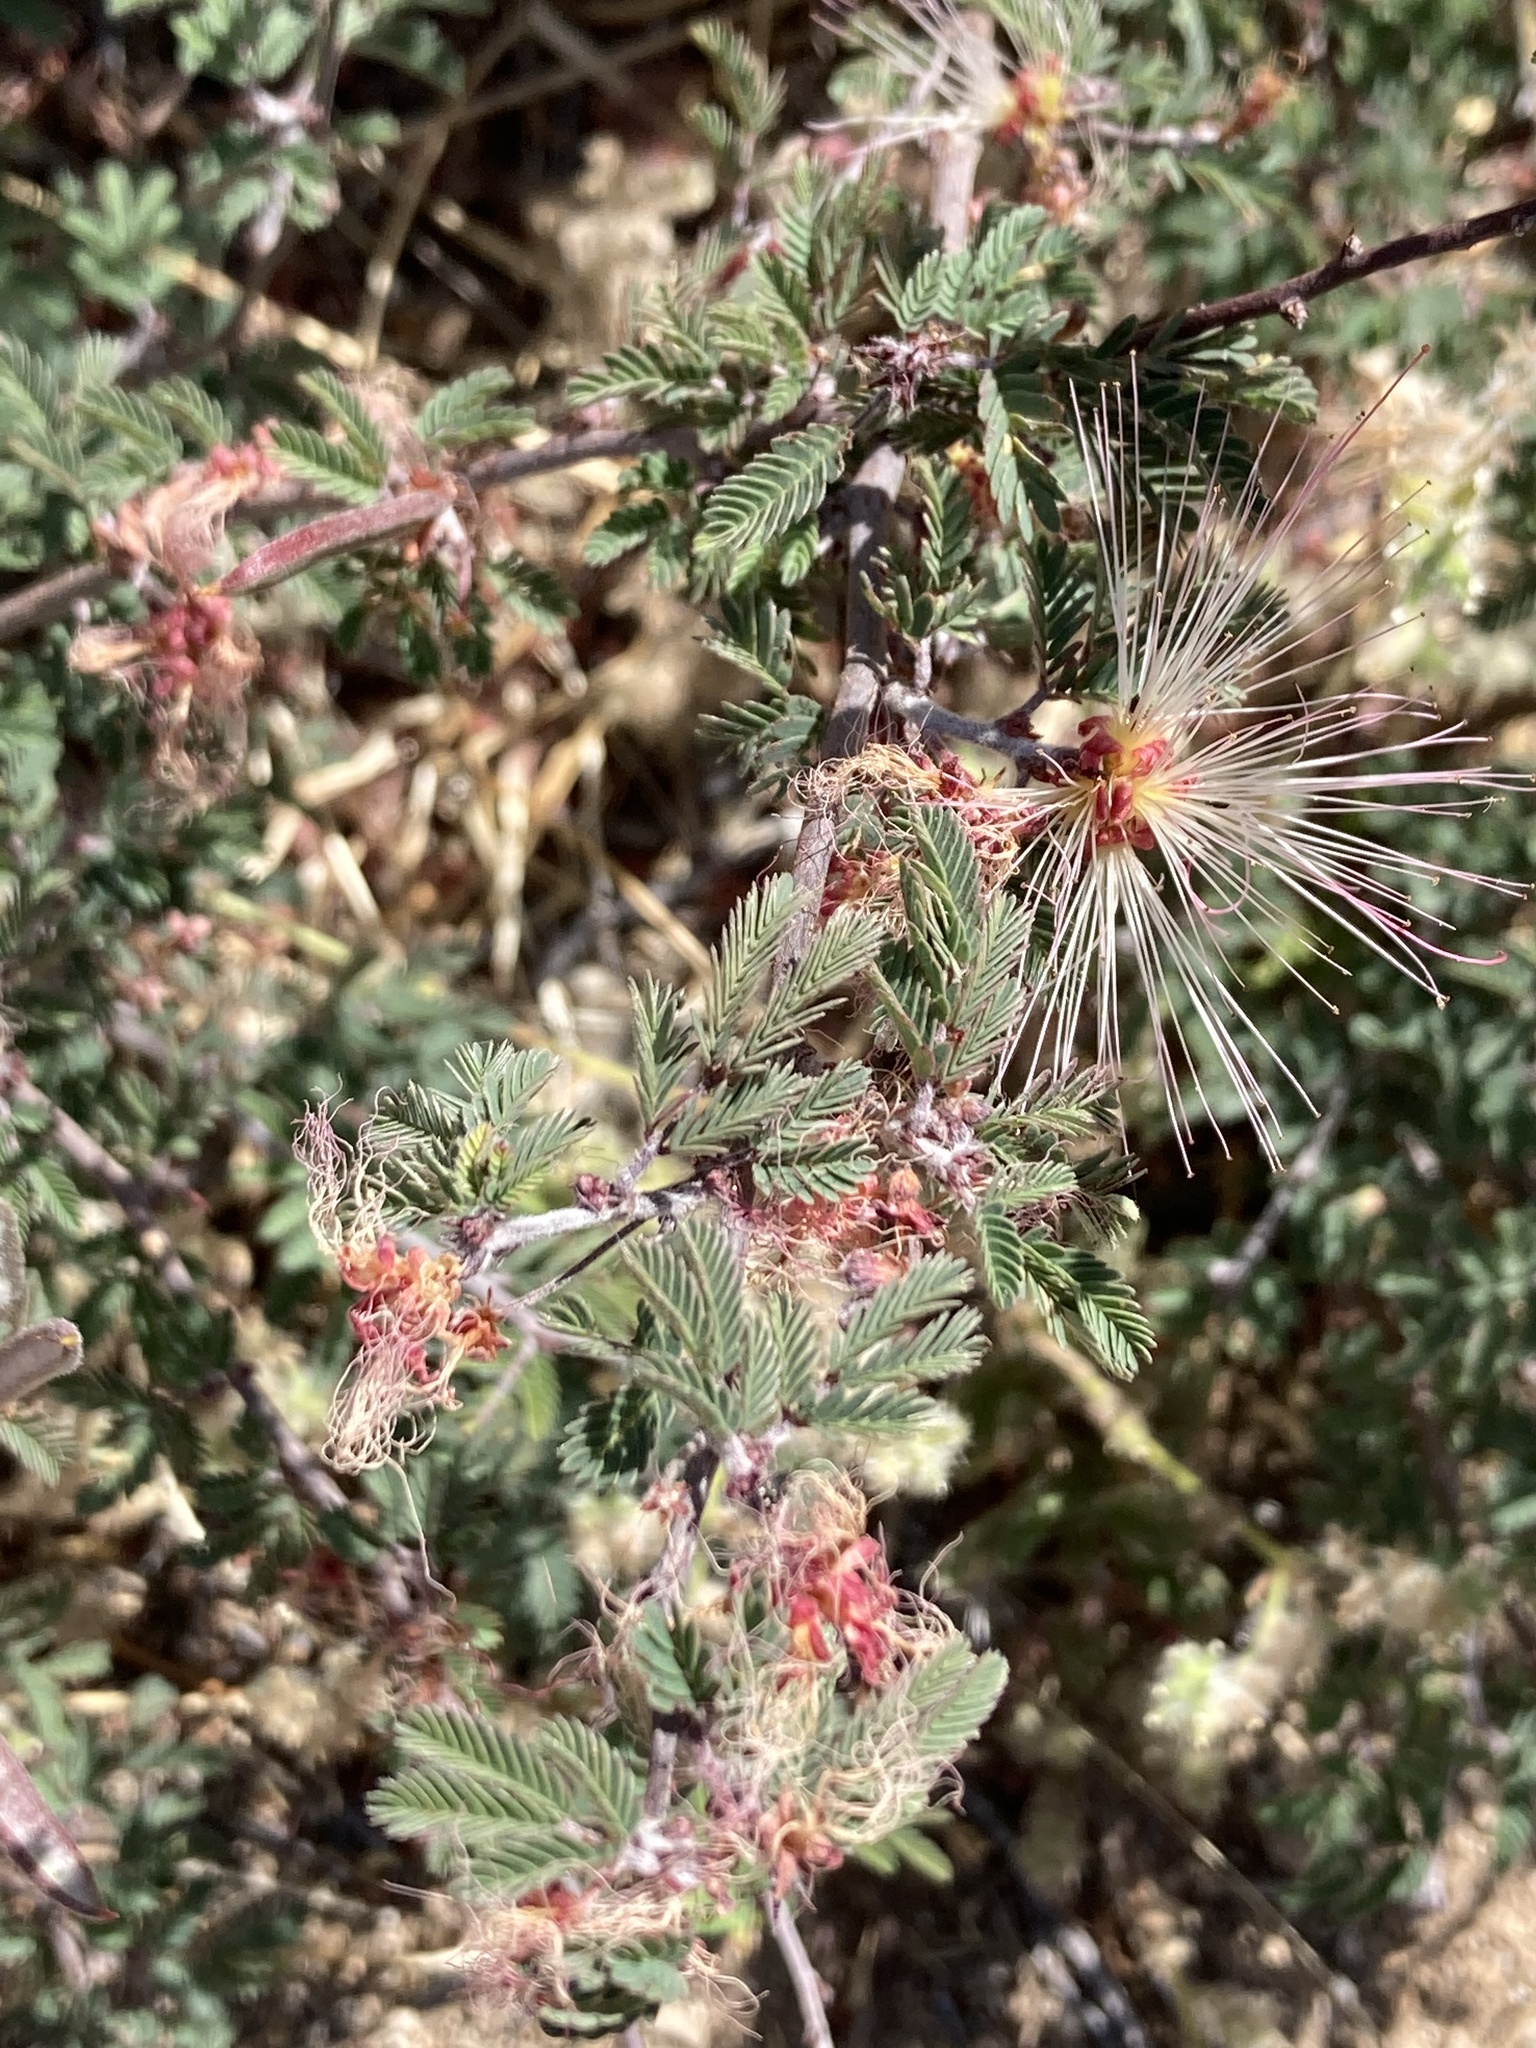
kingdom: Plantae
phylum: Tracheophyta
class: Magnoliopsida
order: Fabales
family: Fabaceae
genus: Calliandra
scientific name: Calliandra eriophylla
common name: Fairy-duster
